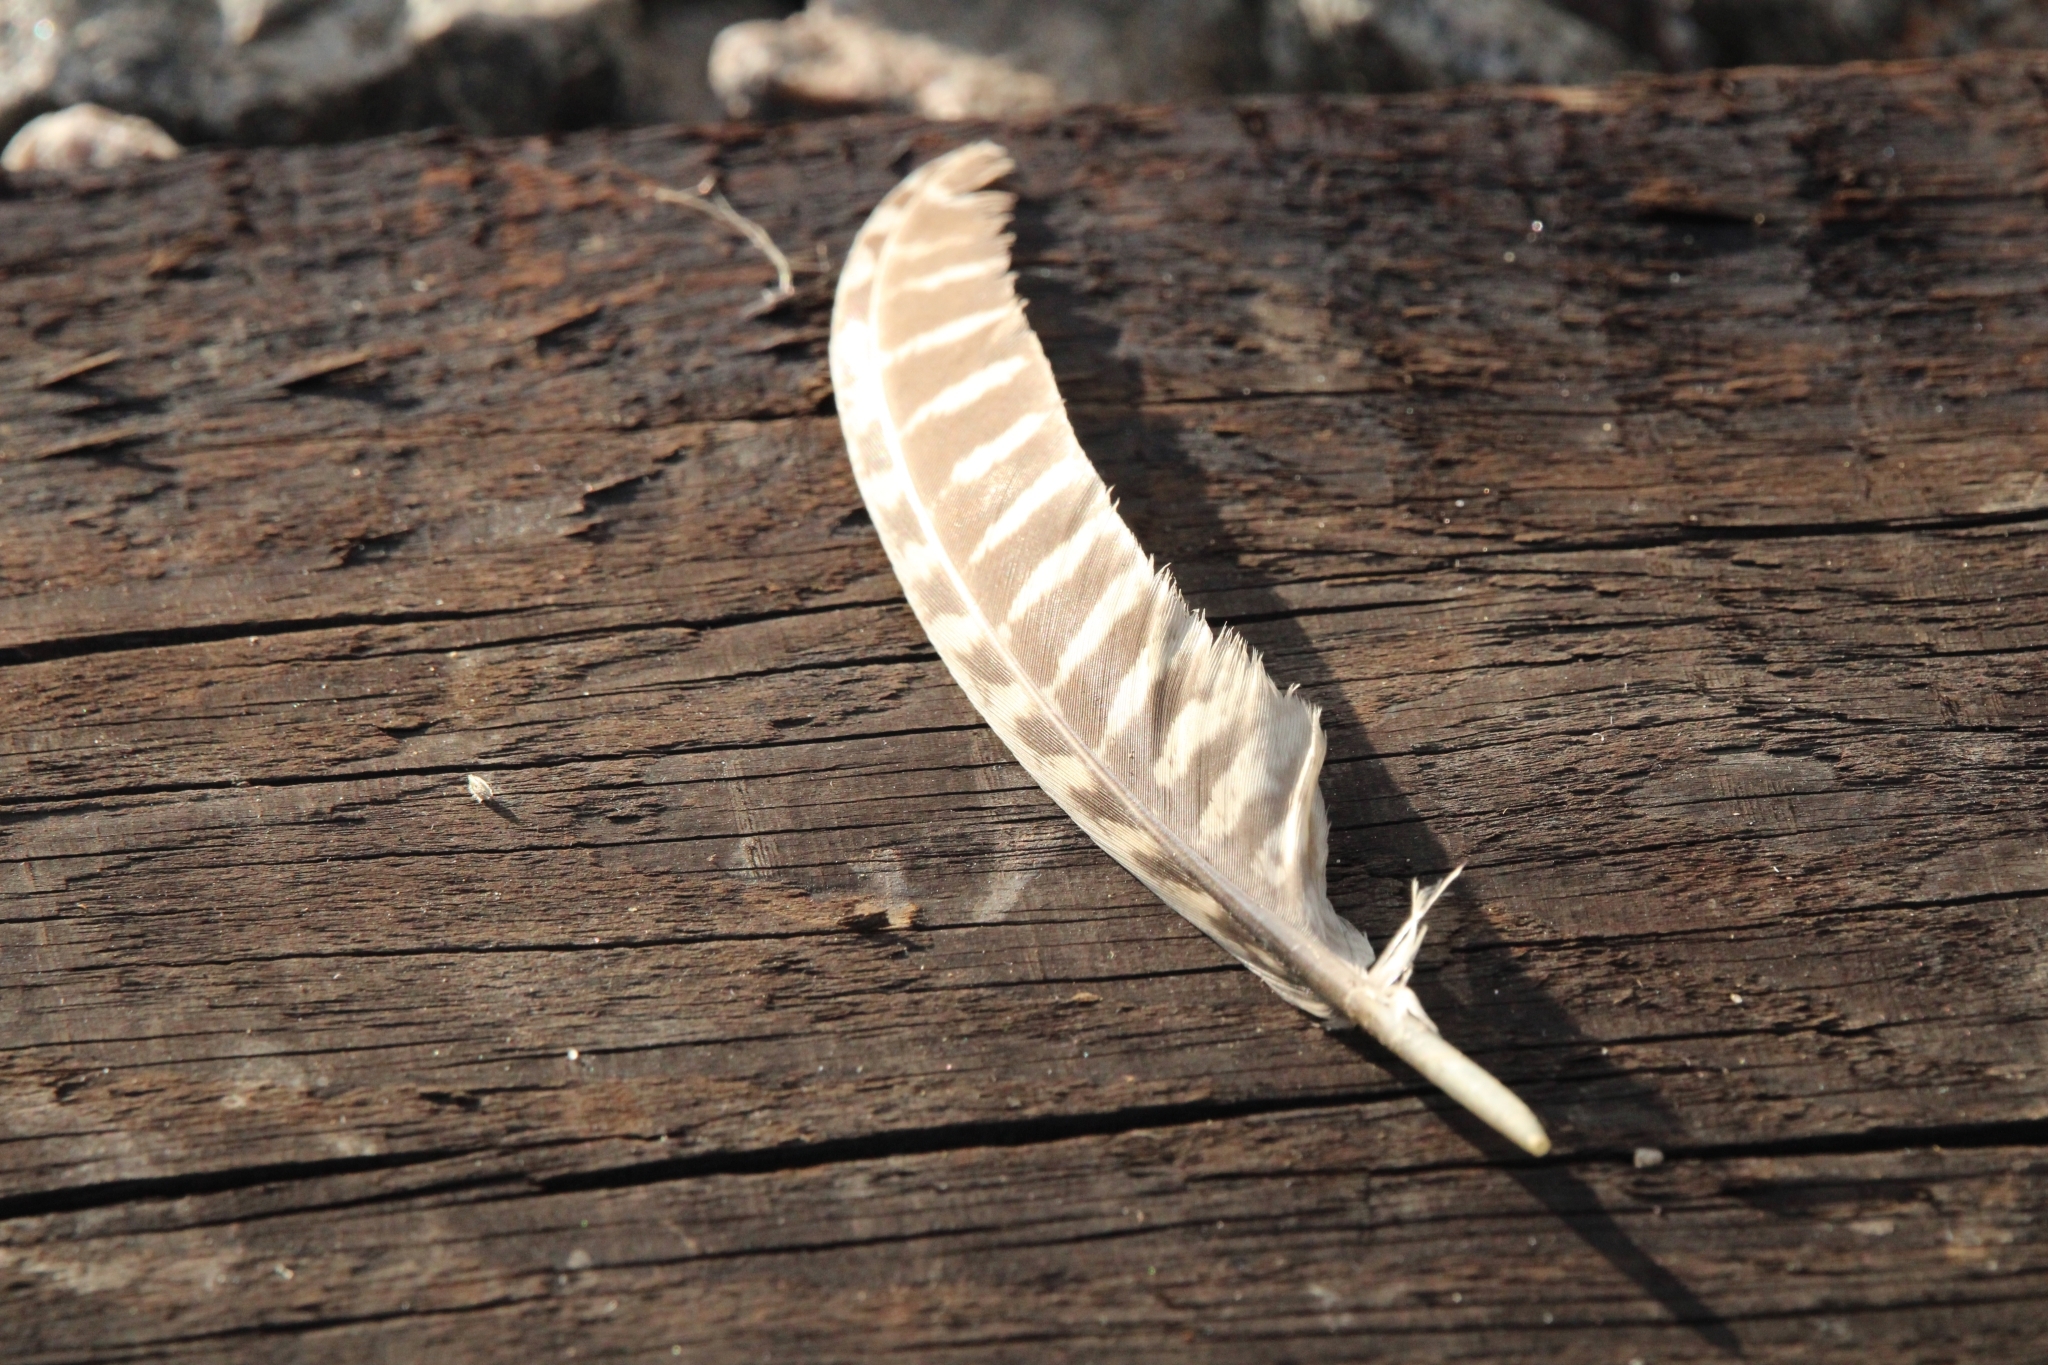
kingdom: Animalia
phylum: Chordata
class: Aves
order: Galliformes
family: Phasianidae
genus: Phasianus
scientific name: Phasianus colchicus
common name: Common pheasant
